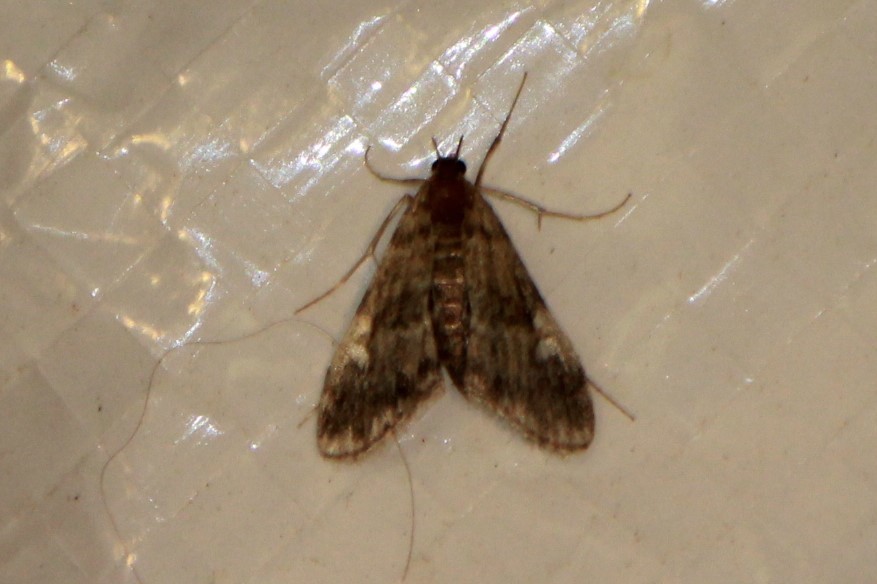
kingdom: Animalia
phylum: Arthropoda
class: Insecta
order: Lepidoptera
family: Crambidae
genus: Elophila
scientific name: Elophila obliteralis
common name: Waterlily leafcutter moth
